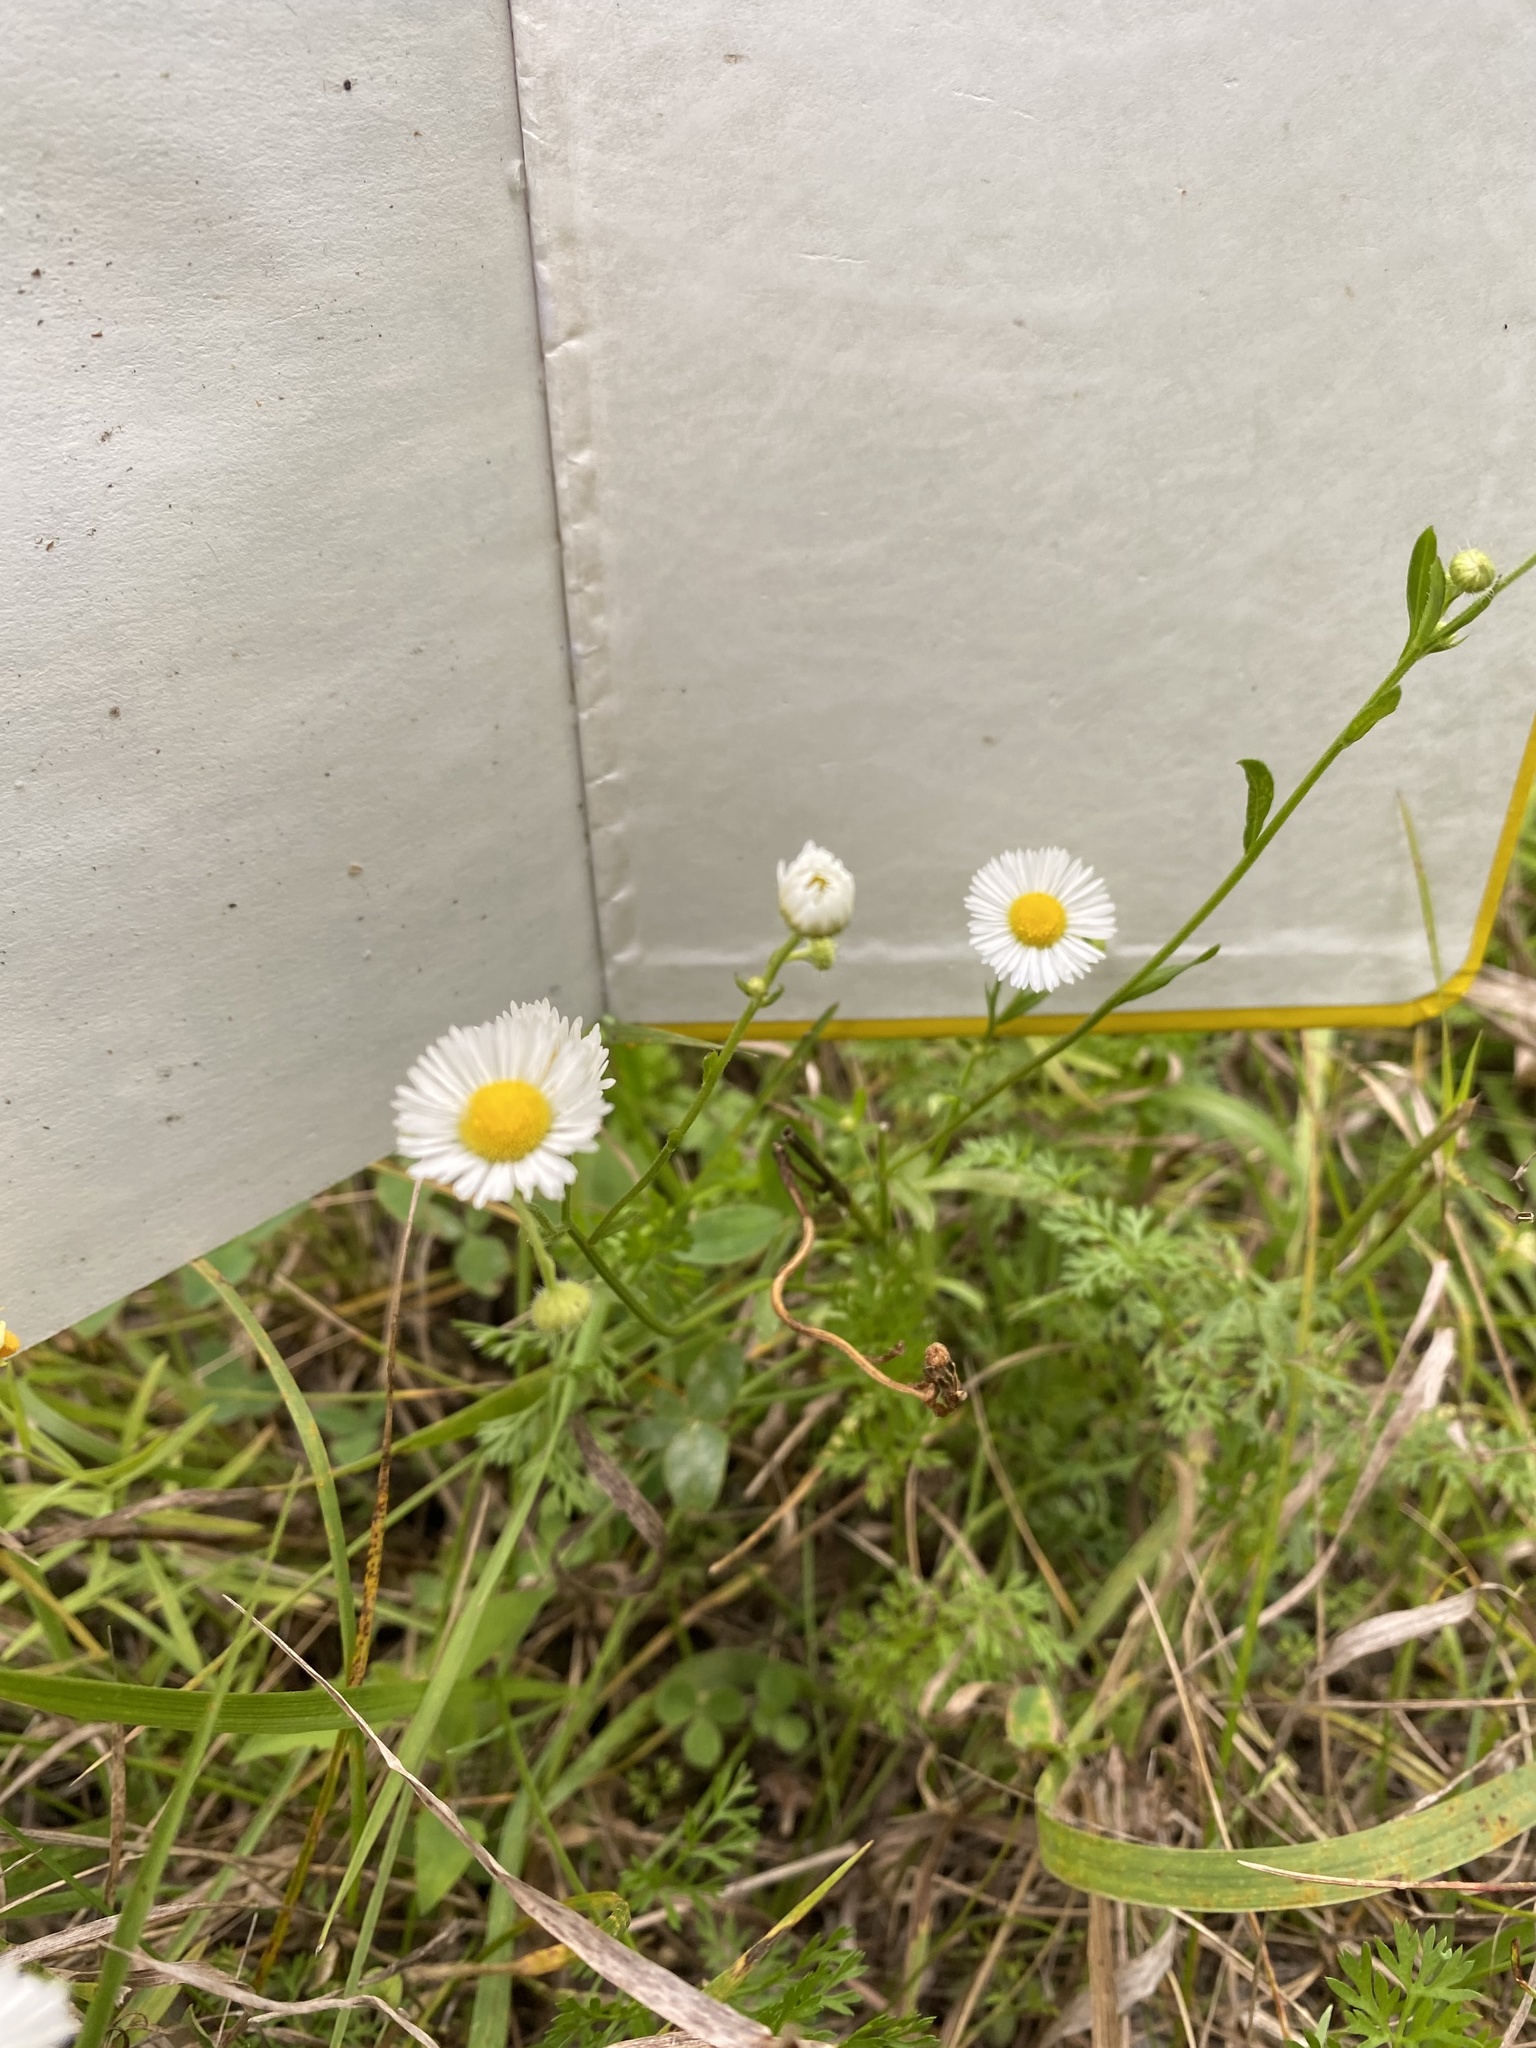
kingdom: Plantae
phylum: Tracheophyta
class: Magnoliopsida
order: Asterales
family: Asteraceae
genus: Erigeron
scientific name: Erigeron strigosus
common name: Common eastern fleabane
